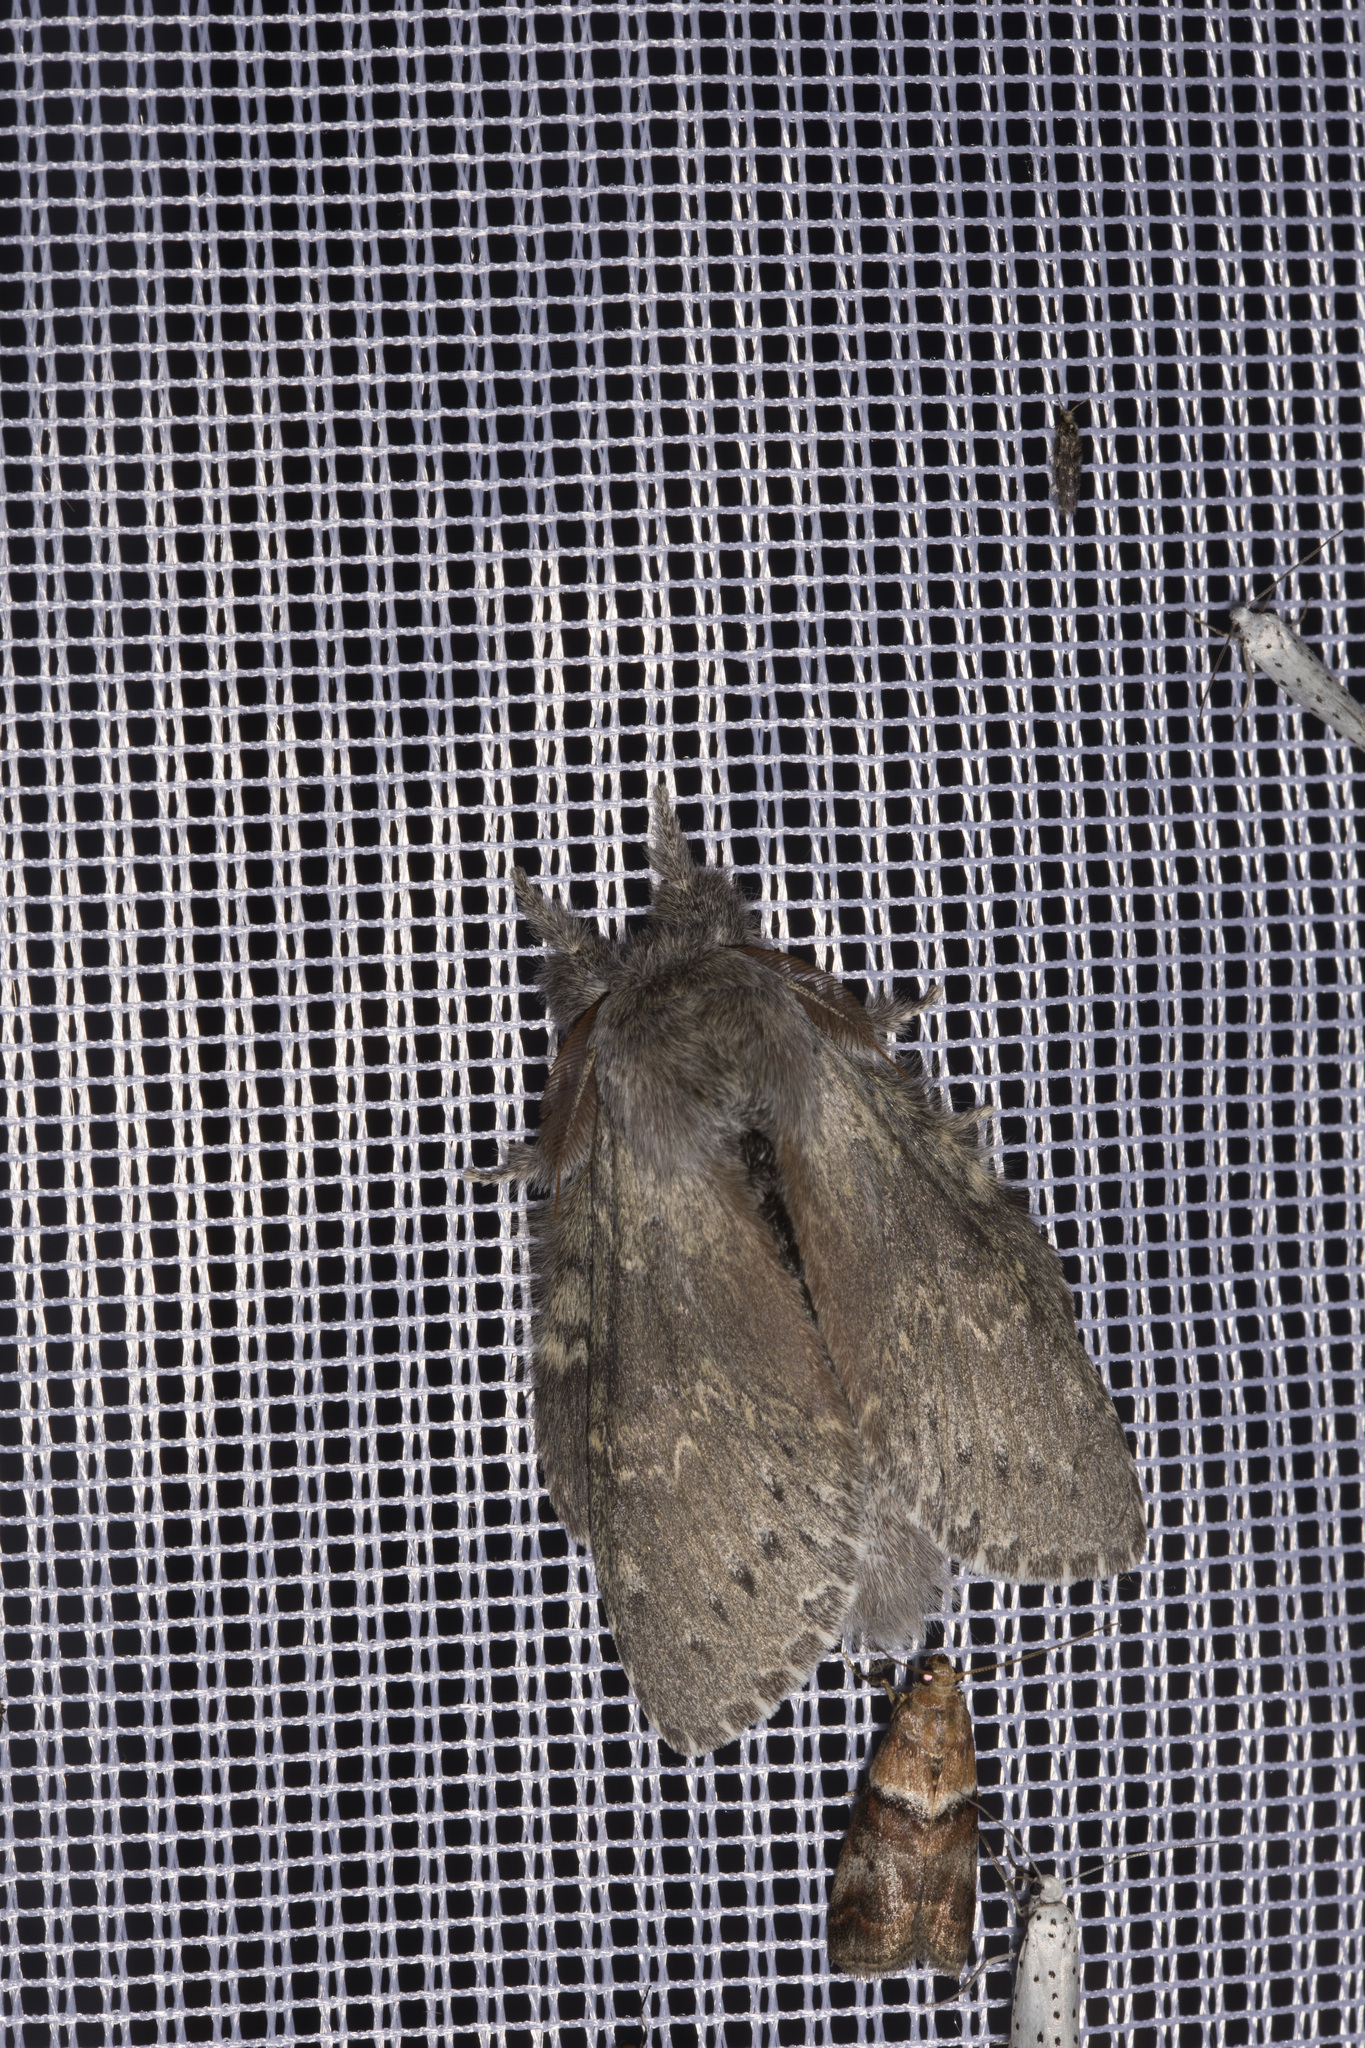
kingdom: Animalia
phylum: Arthropoda
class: Insecta
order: Lepidoptera
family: Notodontidae
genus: Stauropus
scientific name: Stauropus fagi
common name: Lobster moth
